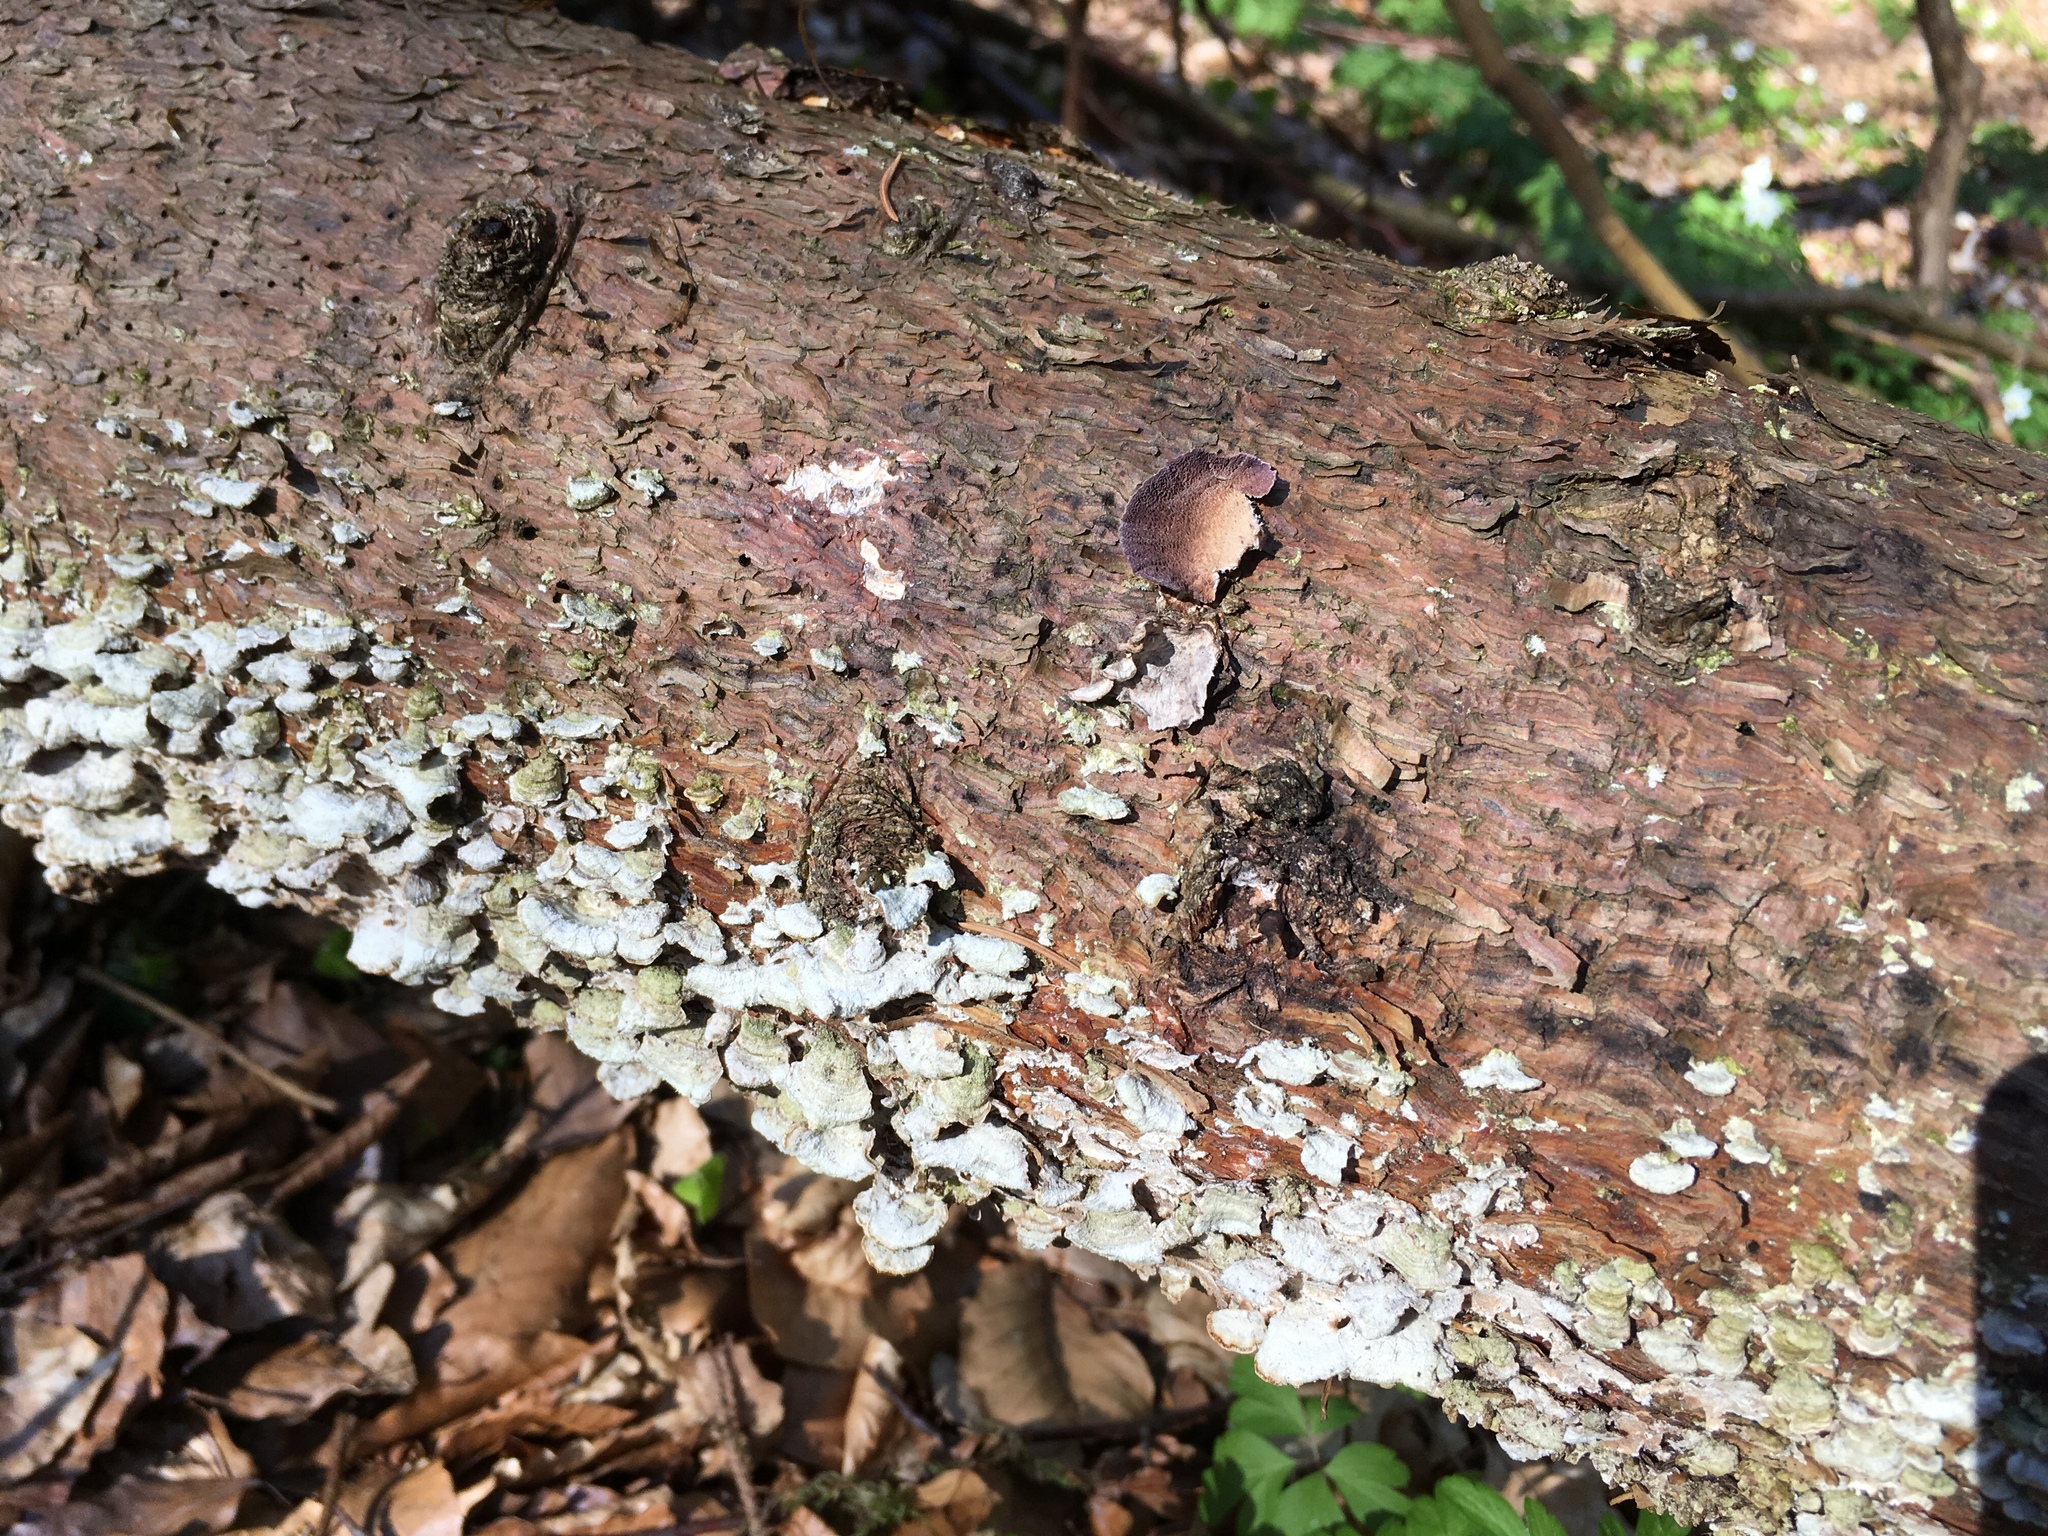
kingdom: Fungi
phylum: Basidiomycota
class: Agaricomycetes
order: Hymenochaetales
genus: Trichaptum
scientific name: Trichaptum abietinum
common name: Purplepore bracket
